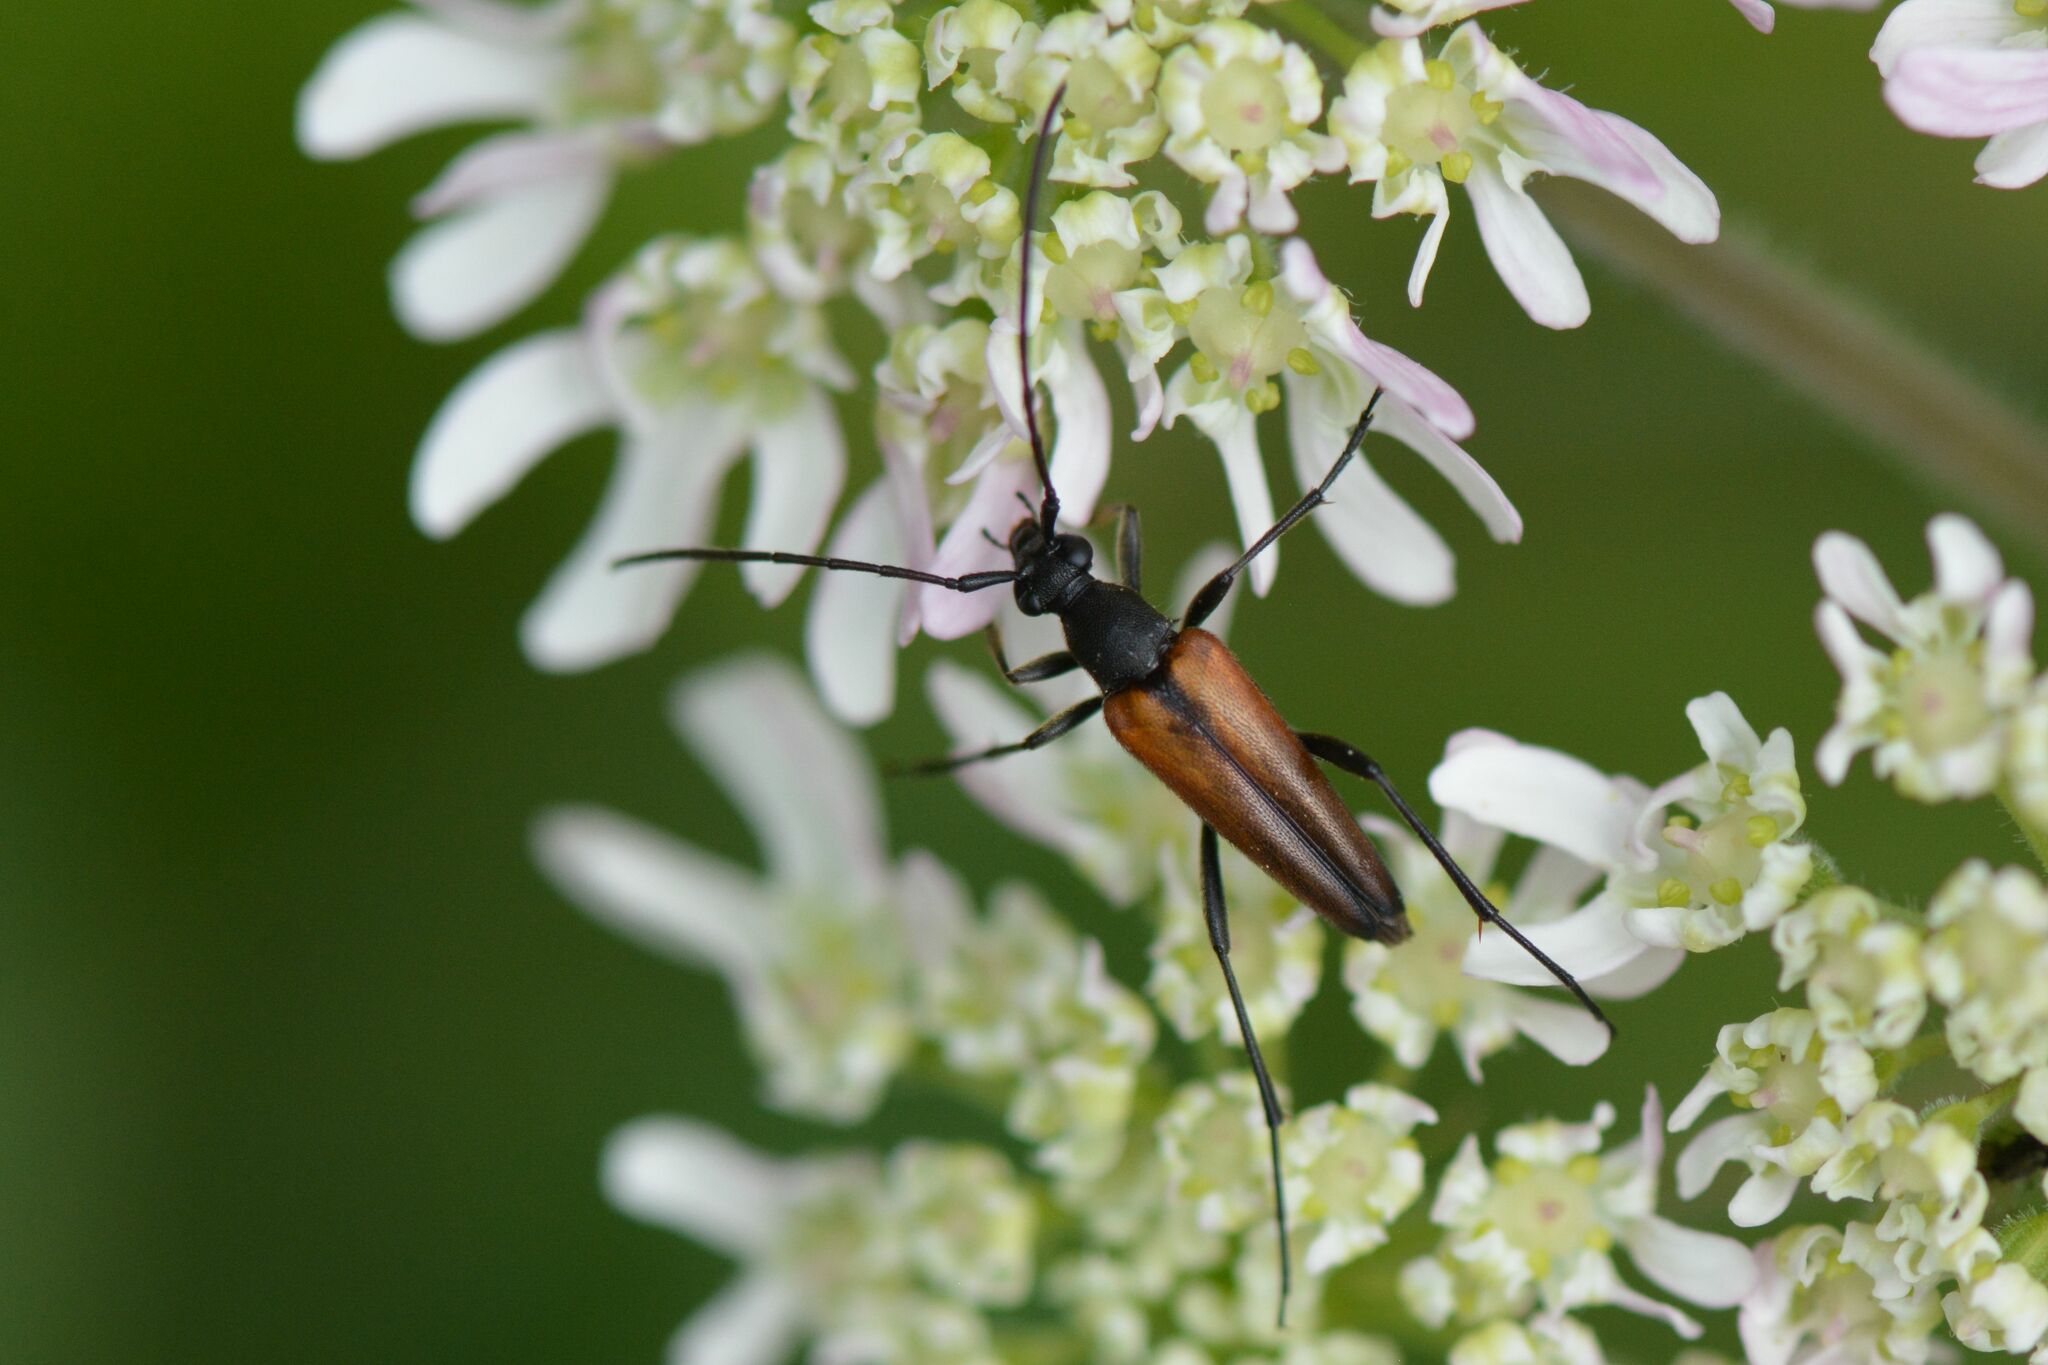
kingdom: Animalia
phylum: Arthropoda
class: Insecta
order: Coleoptera
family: Cerambycidae
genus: Stenurella
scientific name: Stenurella melanura
